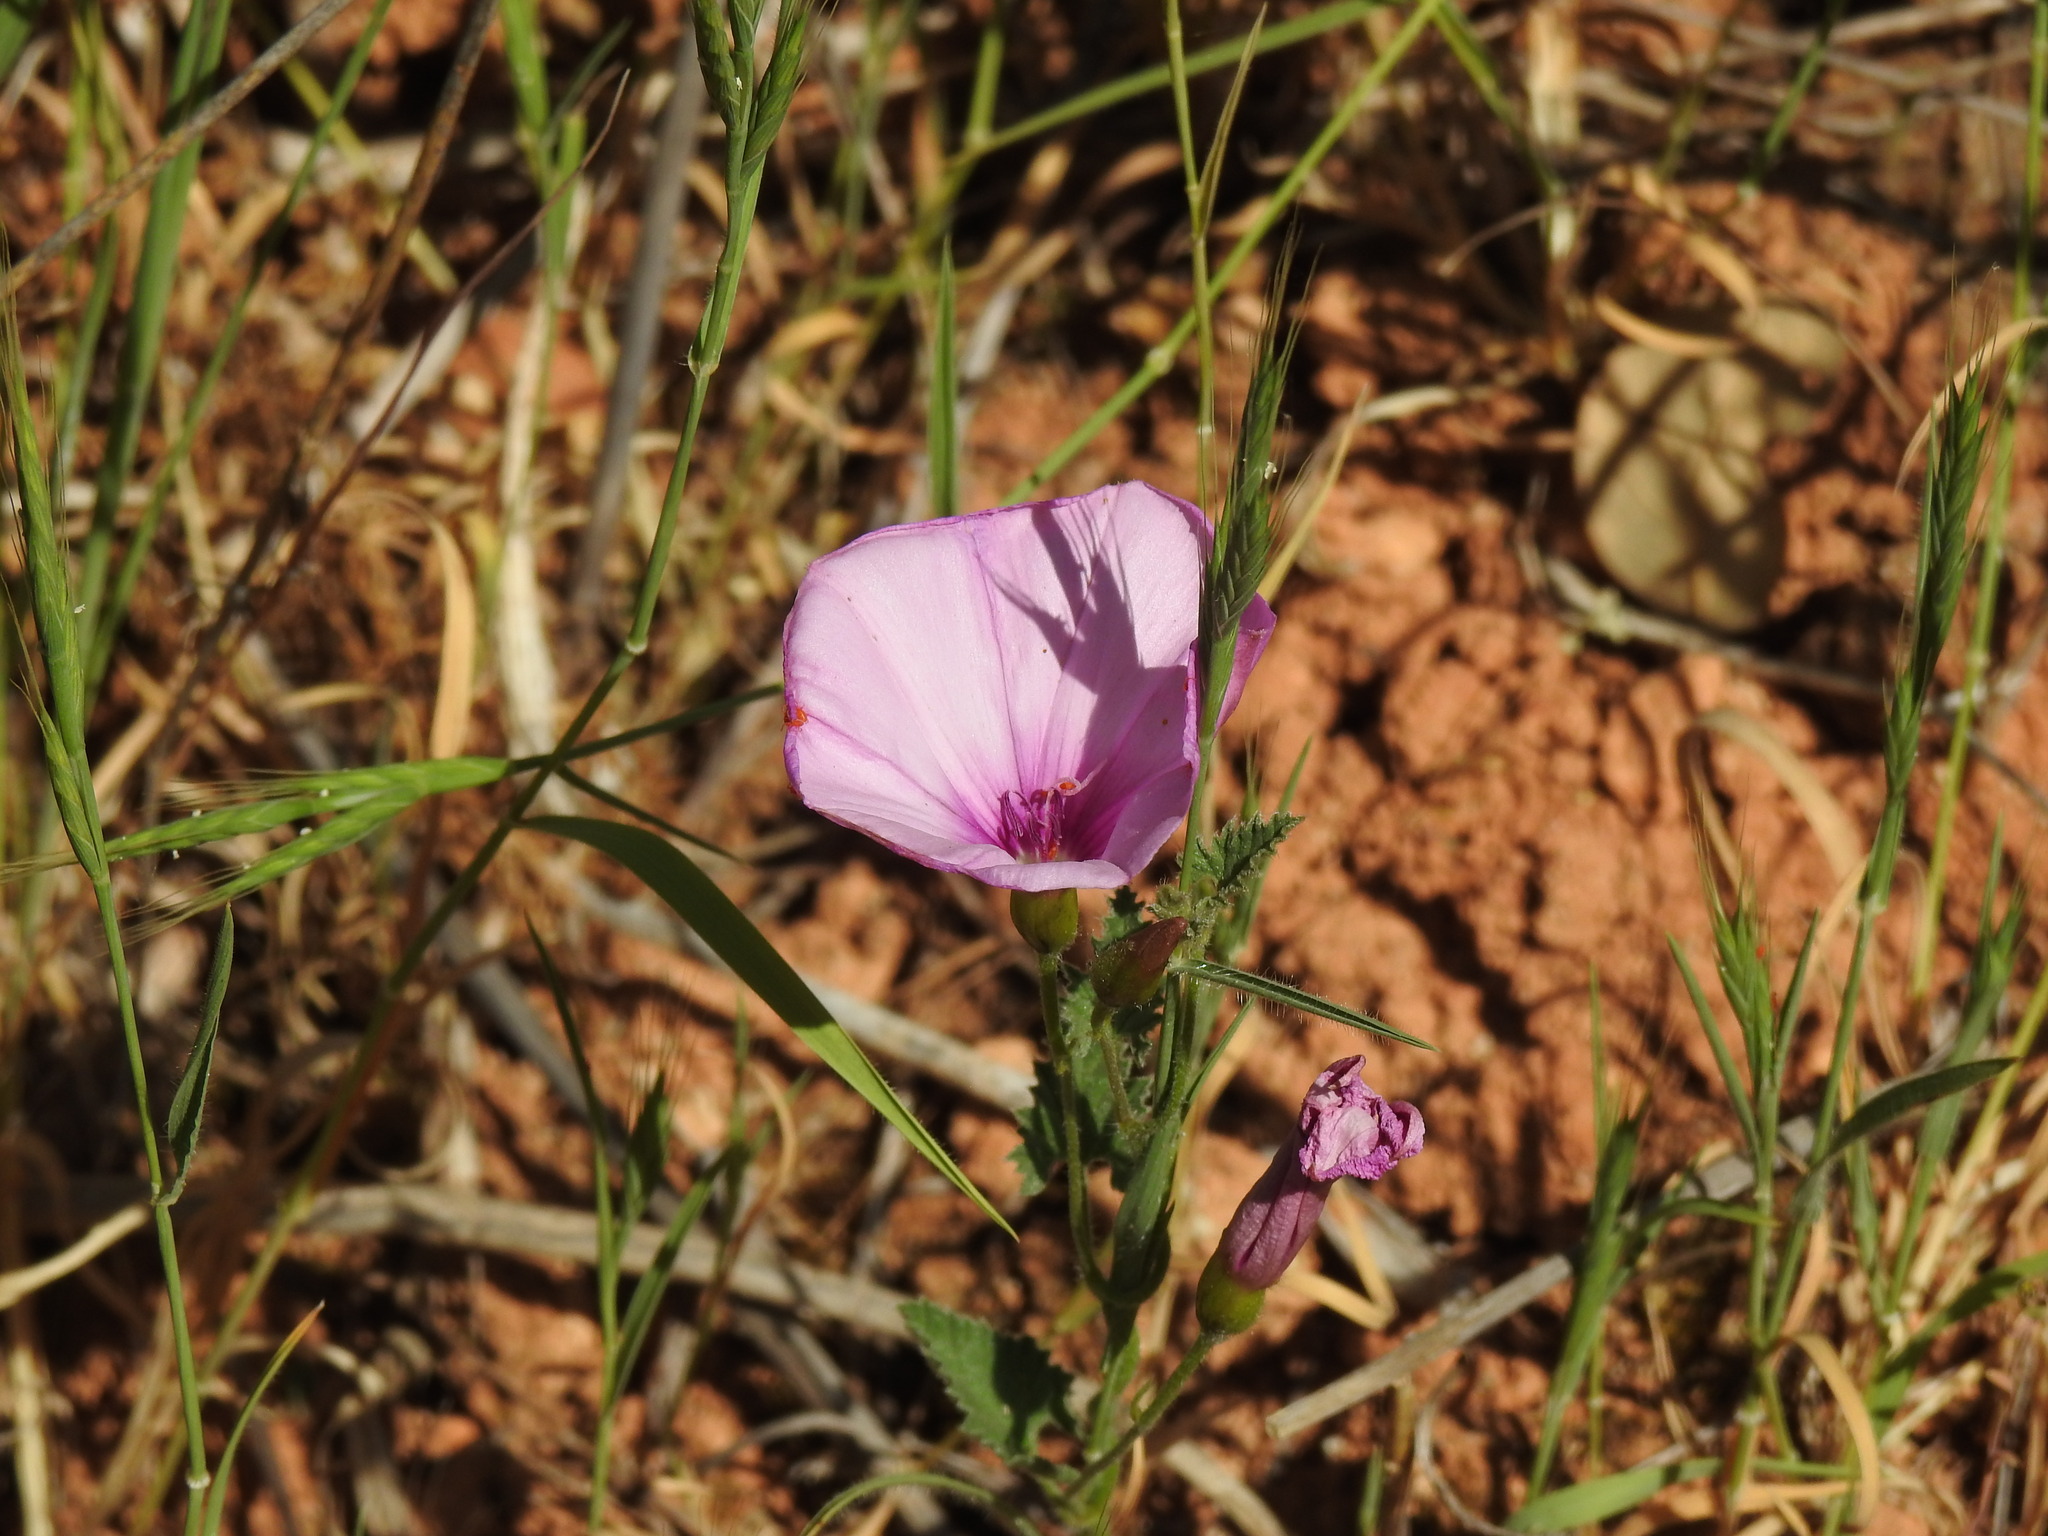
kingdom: Plantae
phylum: Tracheophyta
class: Magnoliopsida
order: Solanales
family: Convolvulaceae
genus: Convolvulus
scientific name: Convolvulus althaeoides
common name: Mallow bindweed
